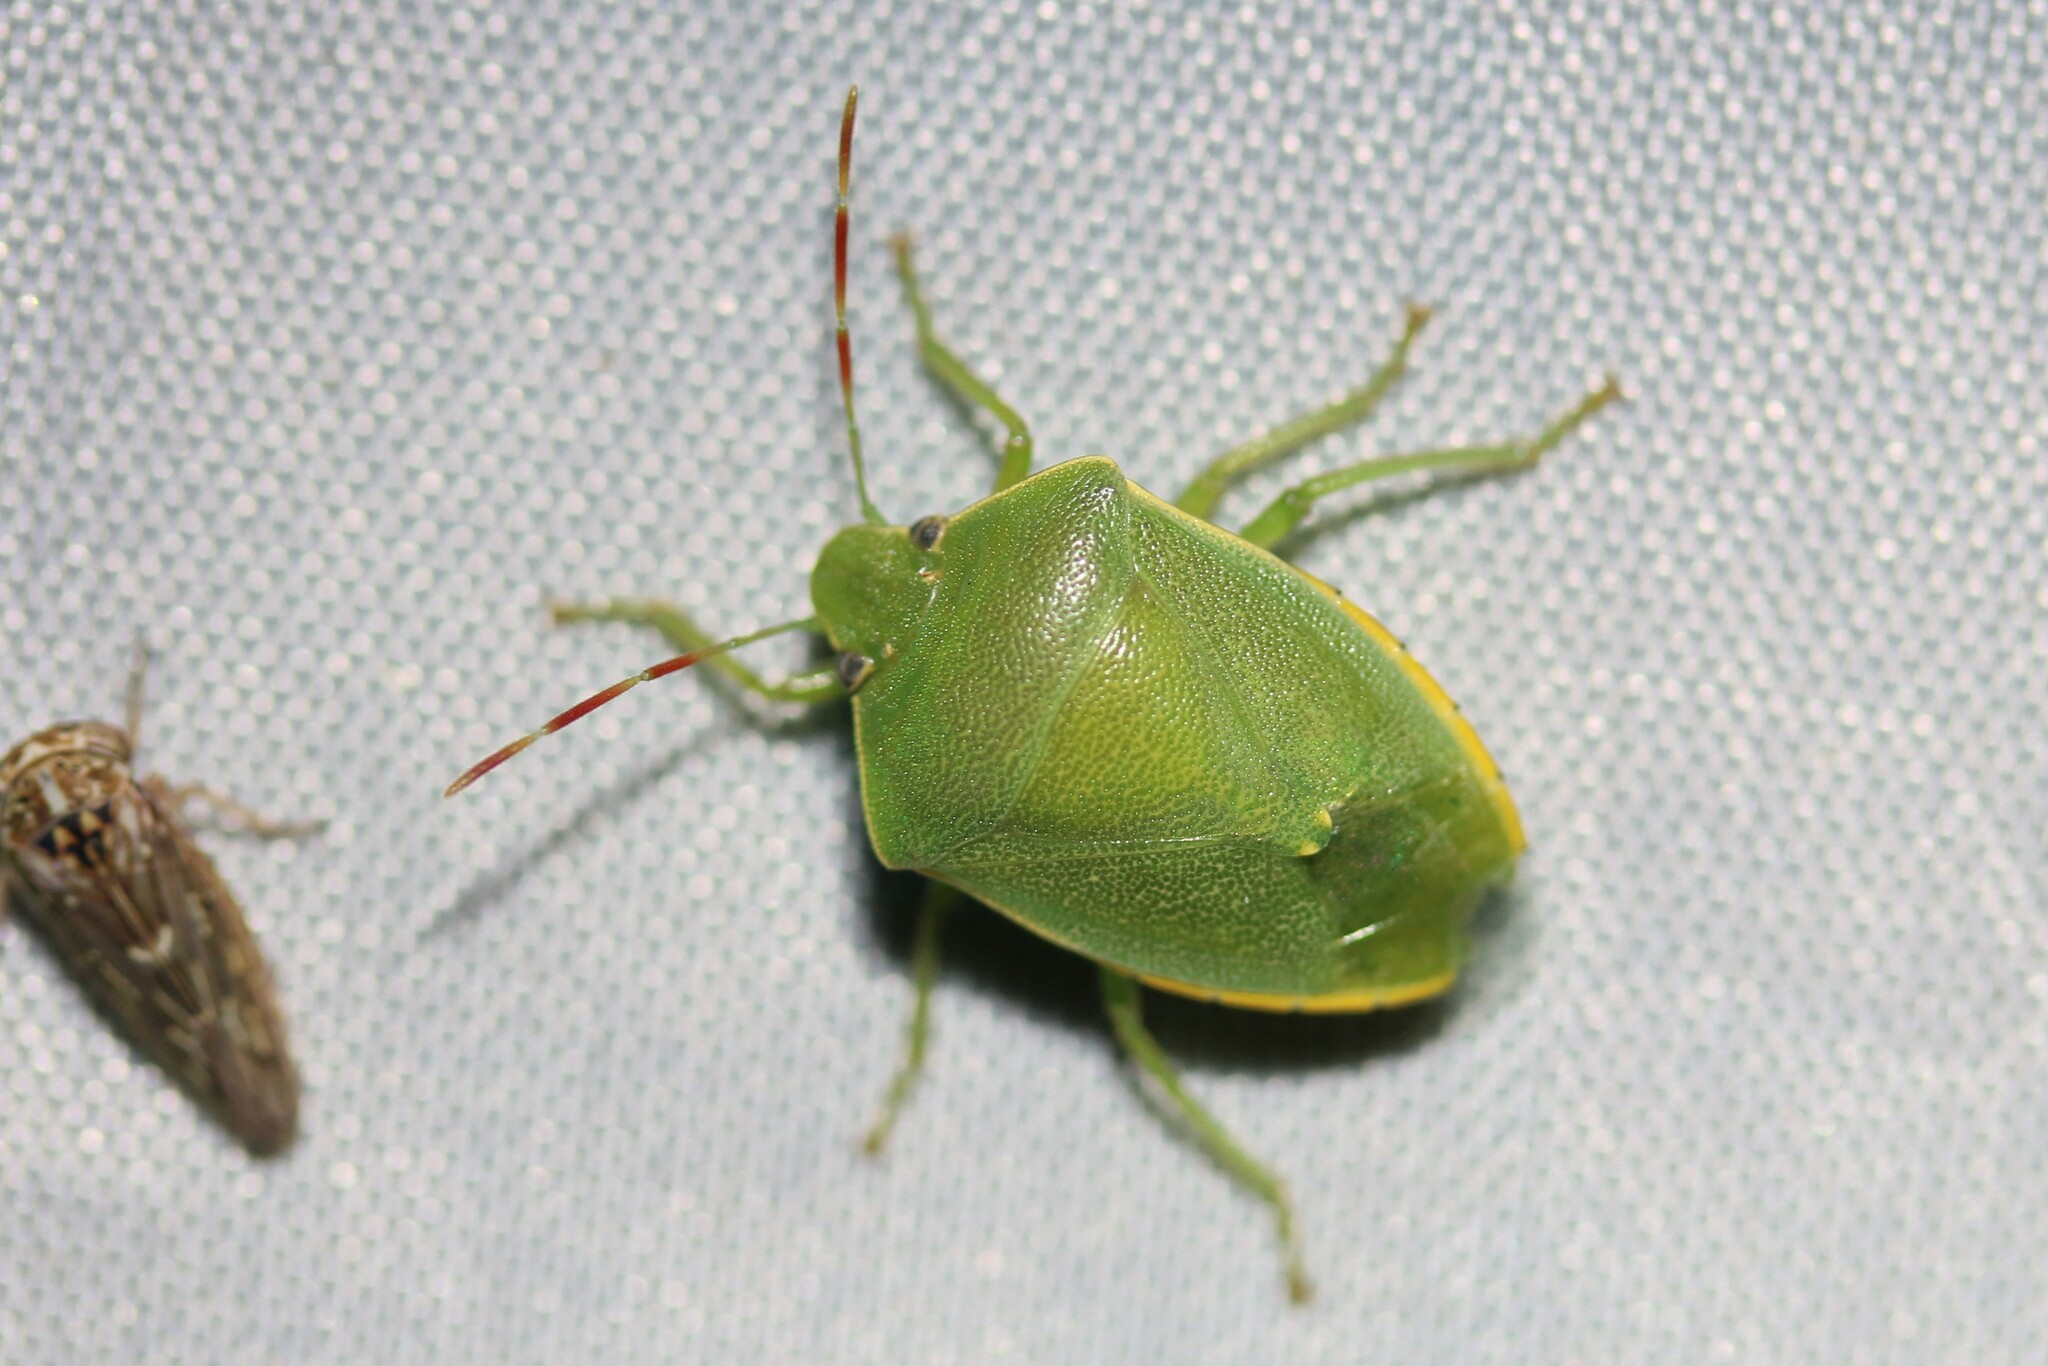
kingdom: Animalia
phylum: Arthropoda
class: Insecta
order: Hemiptera
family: Pentatomidae
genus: Acrosternum
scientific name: Acrosternum heegeri
